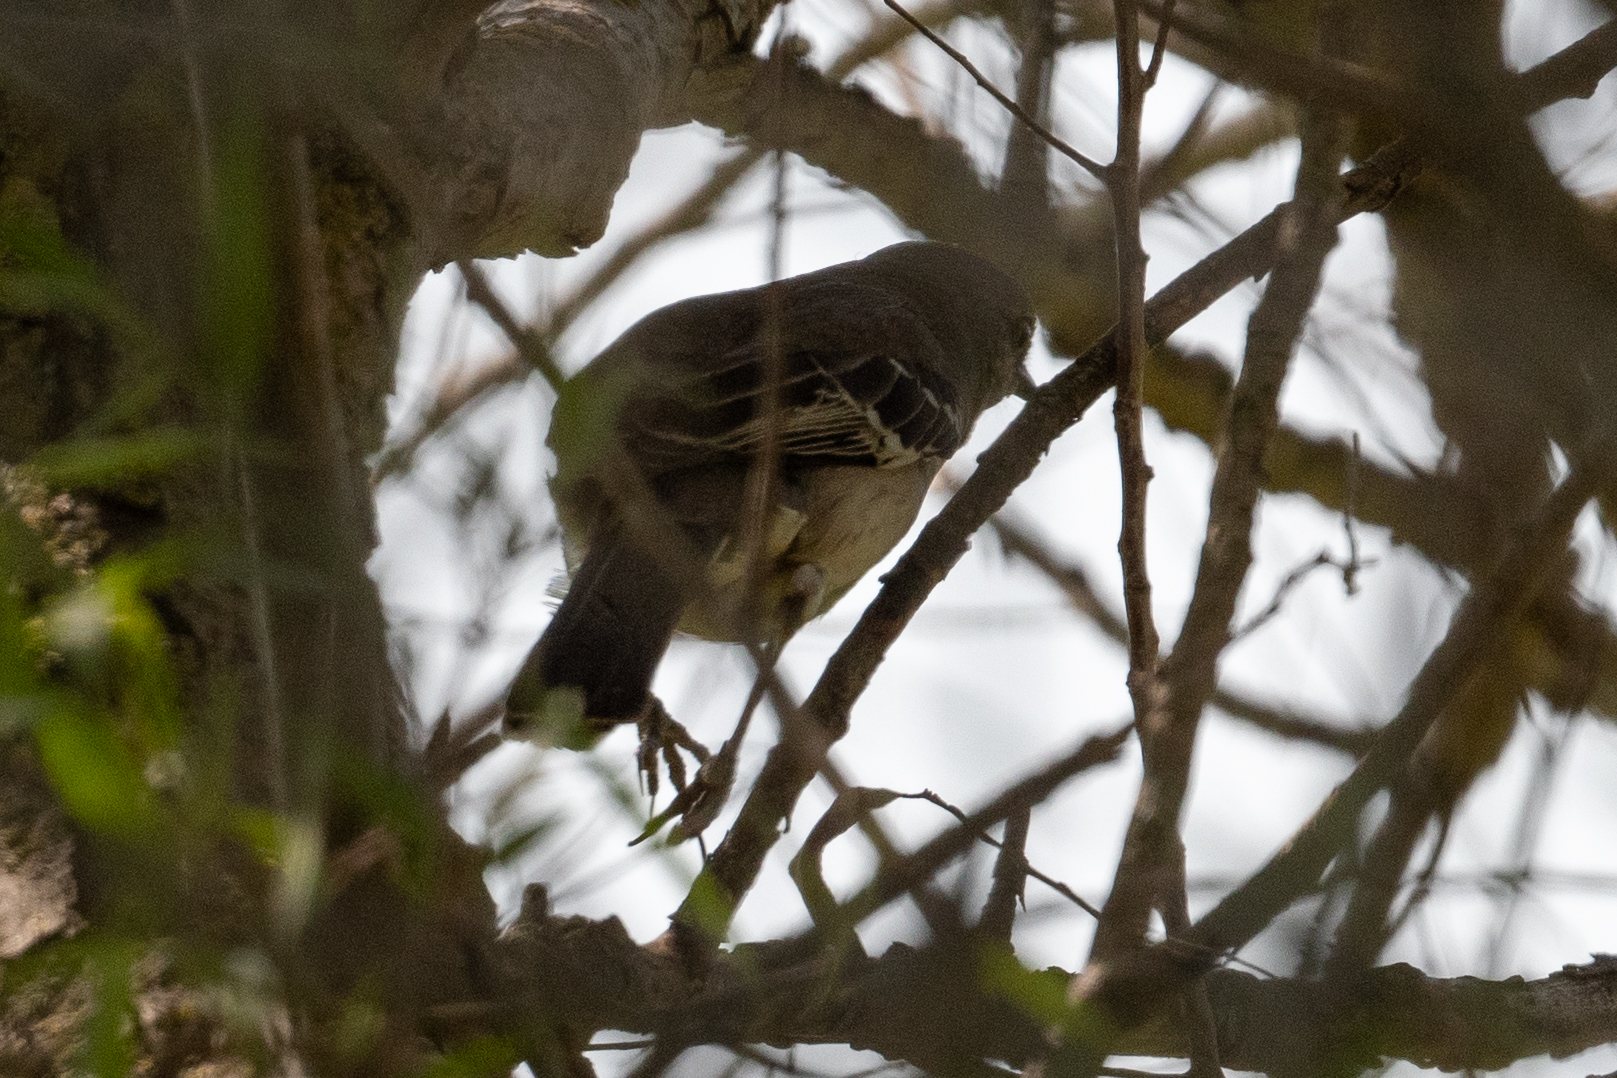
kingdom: Animalia
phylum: Chordata
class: Aves
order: Passeriformes
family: Mimidae
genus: Mimus
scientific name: Mimus polyglottos
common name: Northern mockingbird
